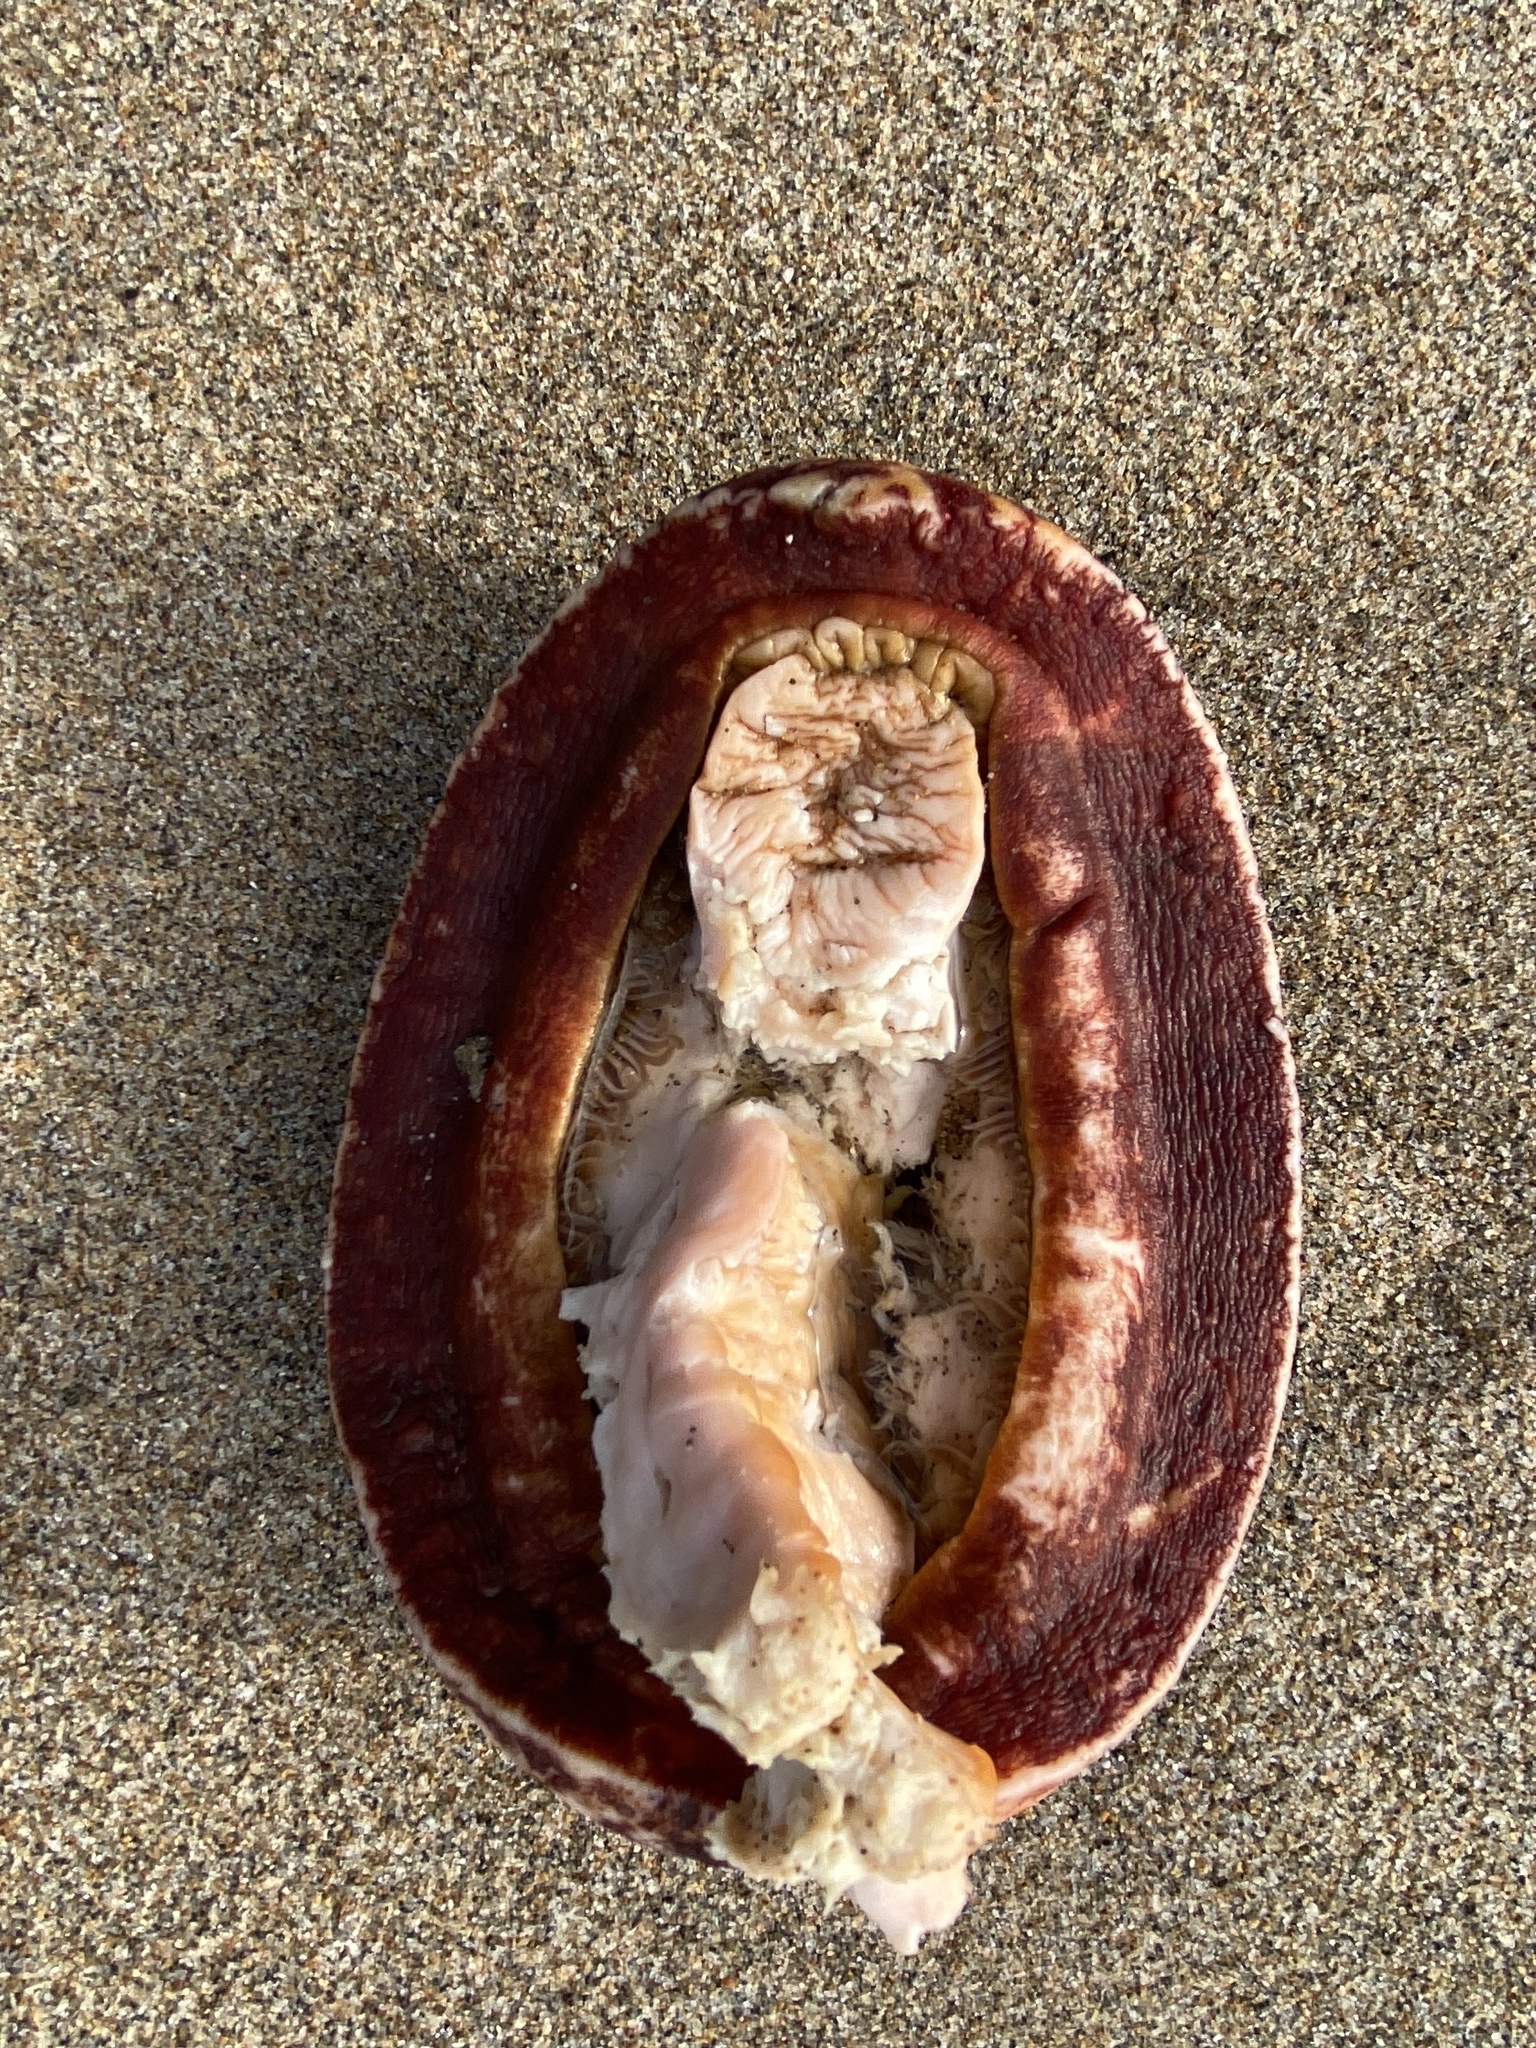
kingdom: Animalia
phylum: Mollusca
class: Polyplacophora
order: Chitonida
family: Acanthochitonidae
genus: Cryptochiton
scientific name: Cryptochiton stelleri
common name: Giant pacific chiton
